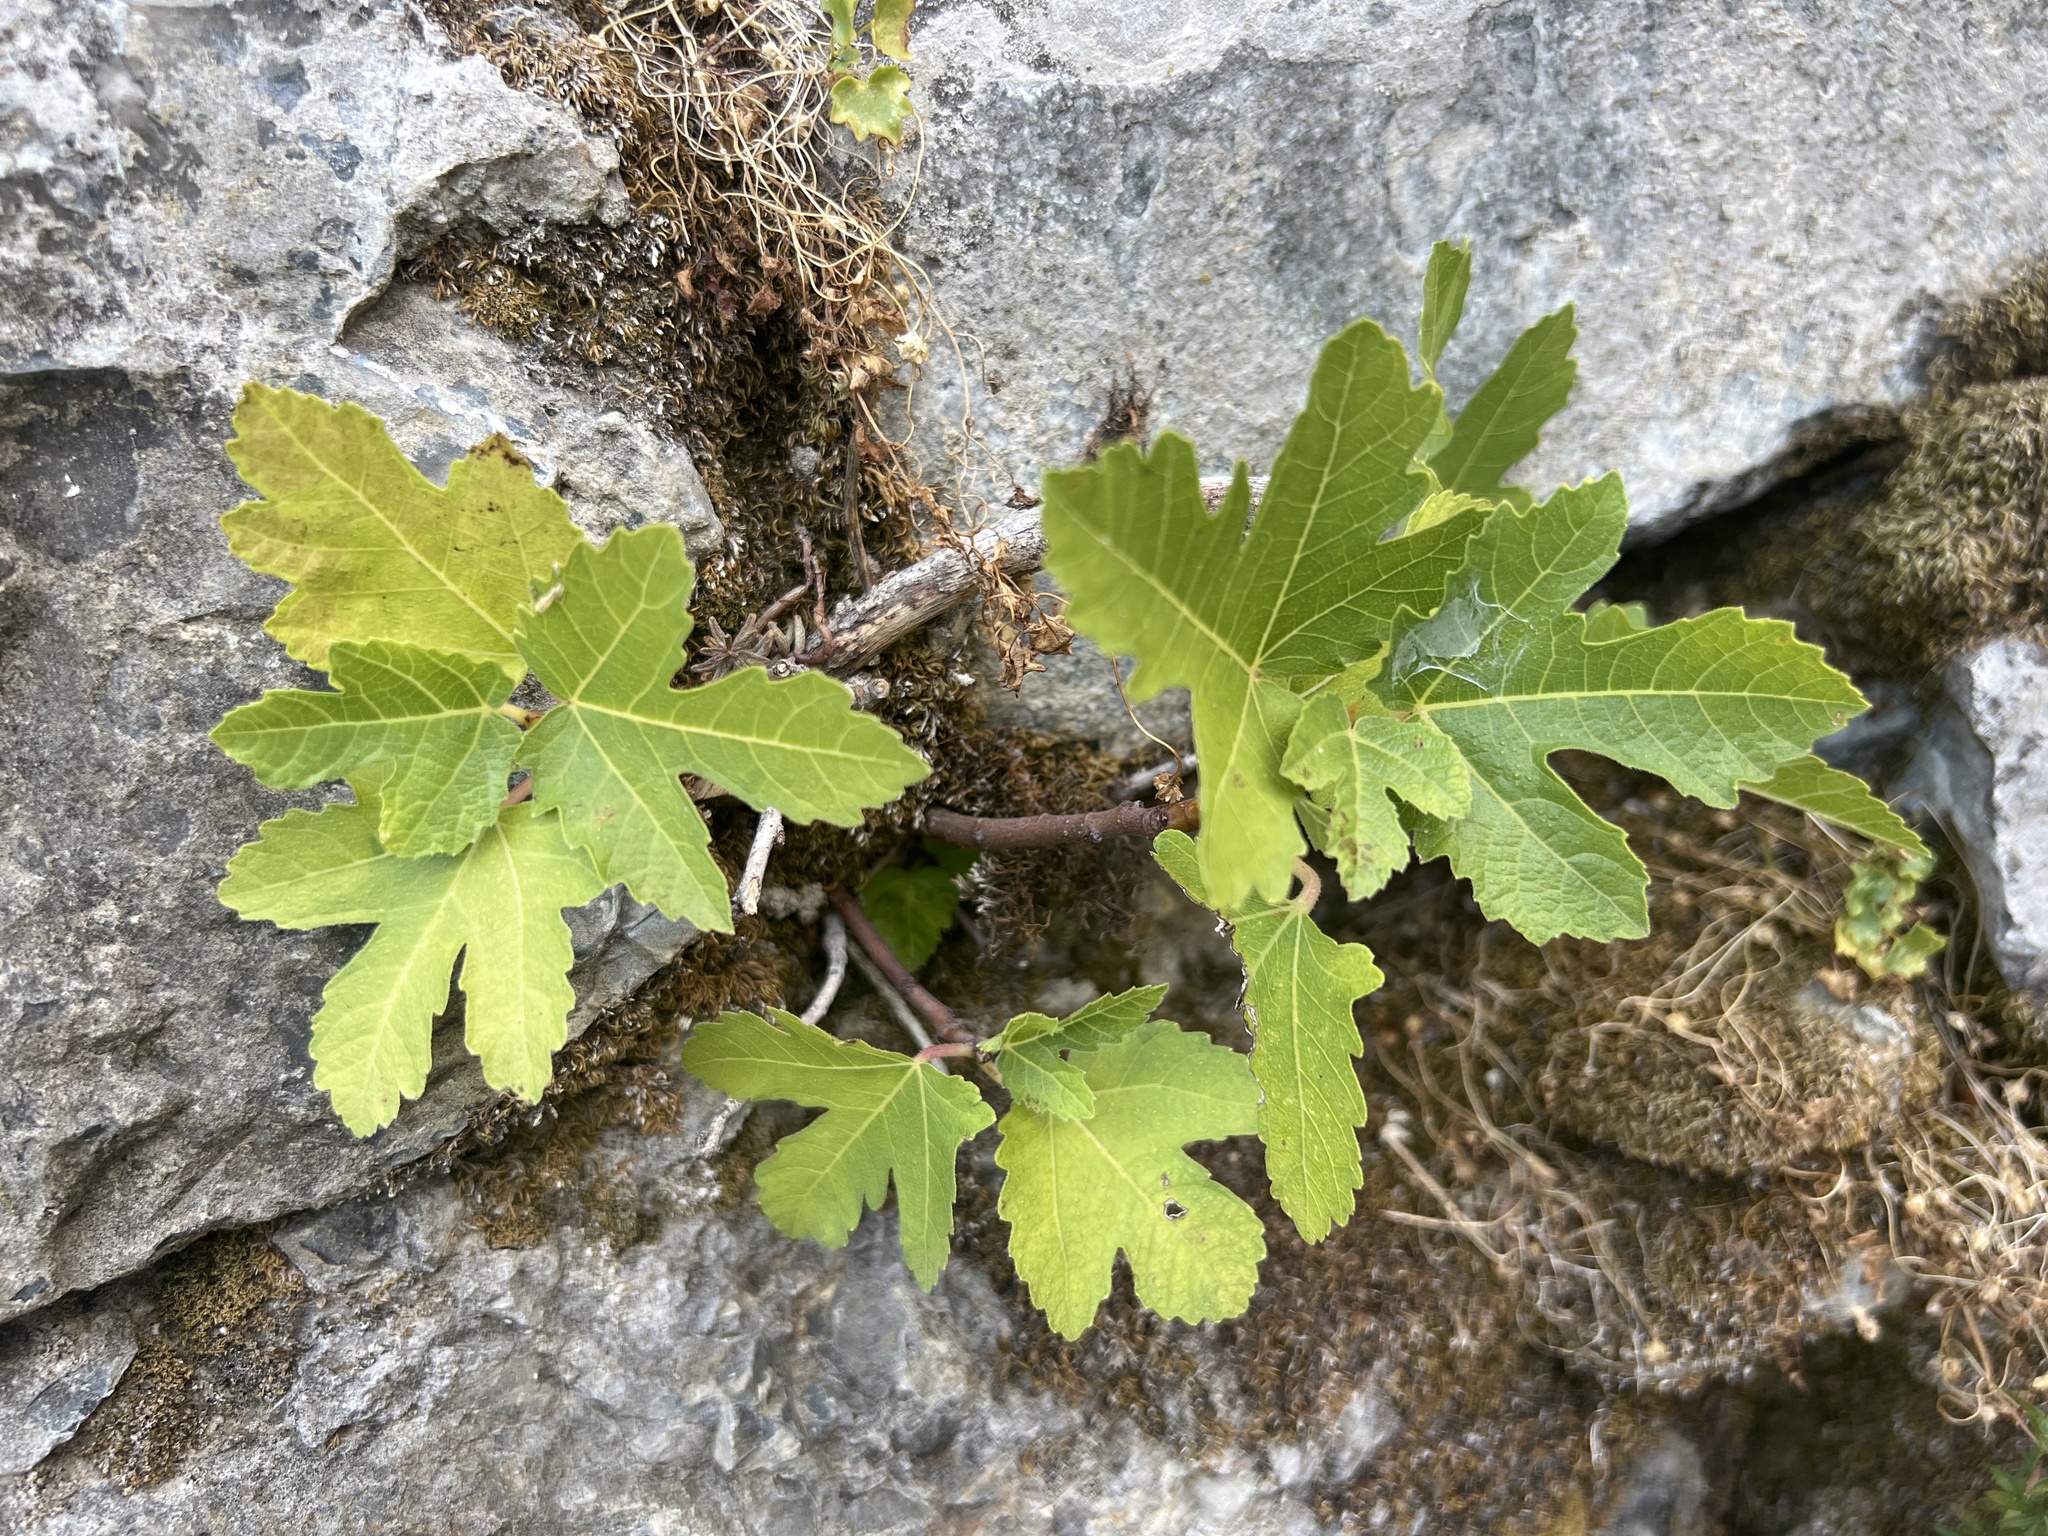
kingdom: Plantae
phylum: Tracheophyta
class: Magnoliopsida
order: Rosales
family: Moraceae
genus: Ficus
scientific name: Ficus carica
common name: Fig
